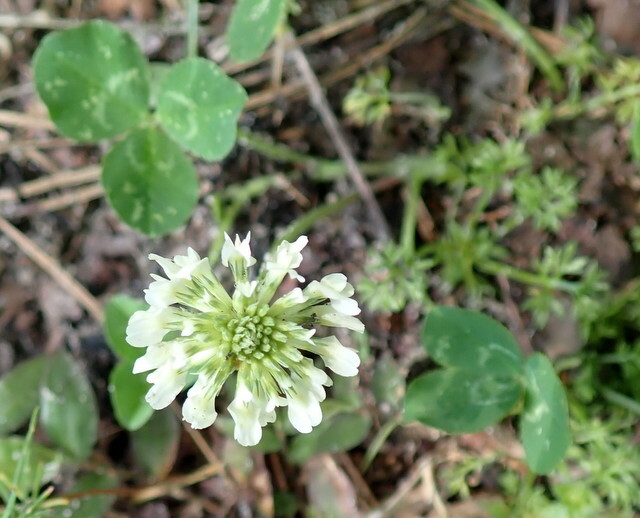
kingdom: Plantae
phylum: Tracheophyta
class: Magnoliopsida
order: Fabales
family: Fabaceae
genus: Trifolium
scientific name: Trifolium repens
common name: White clover
